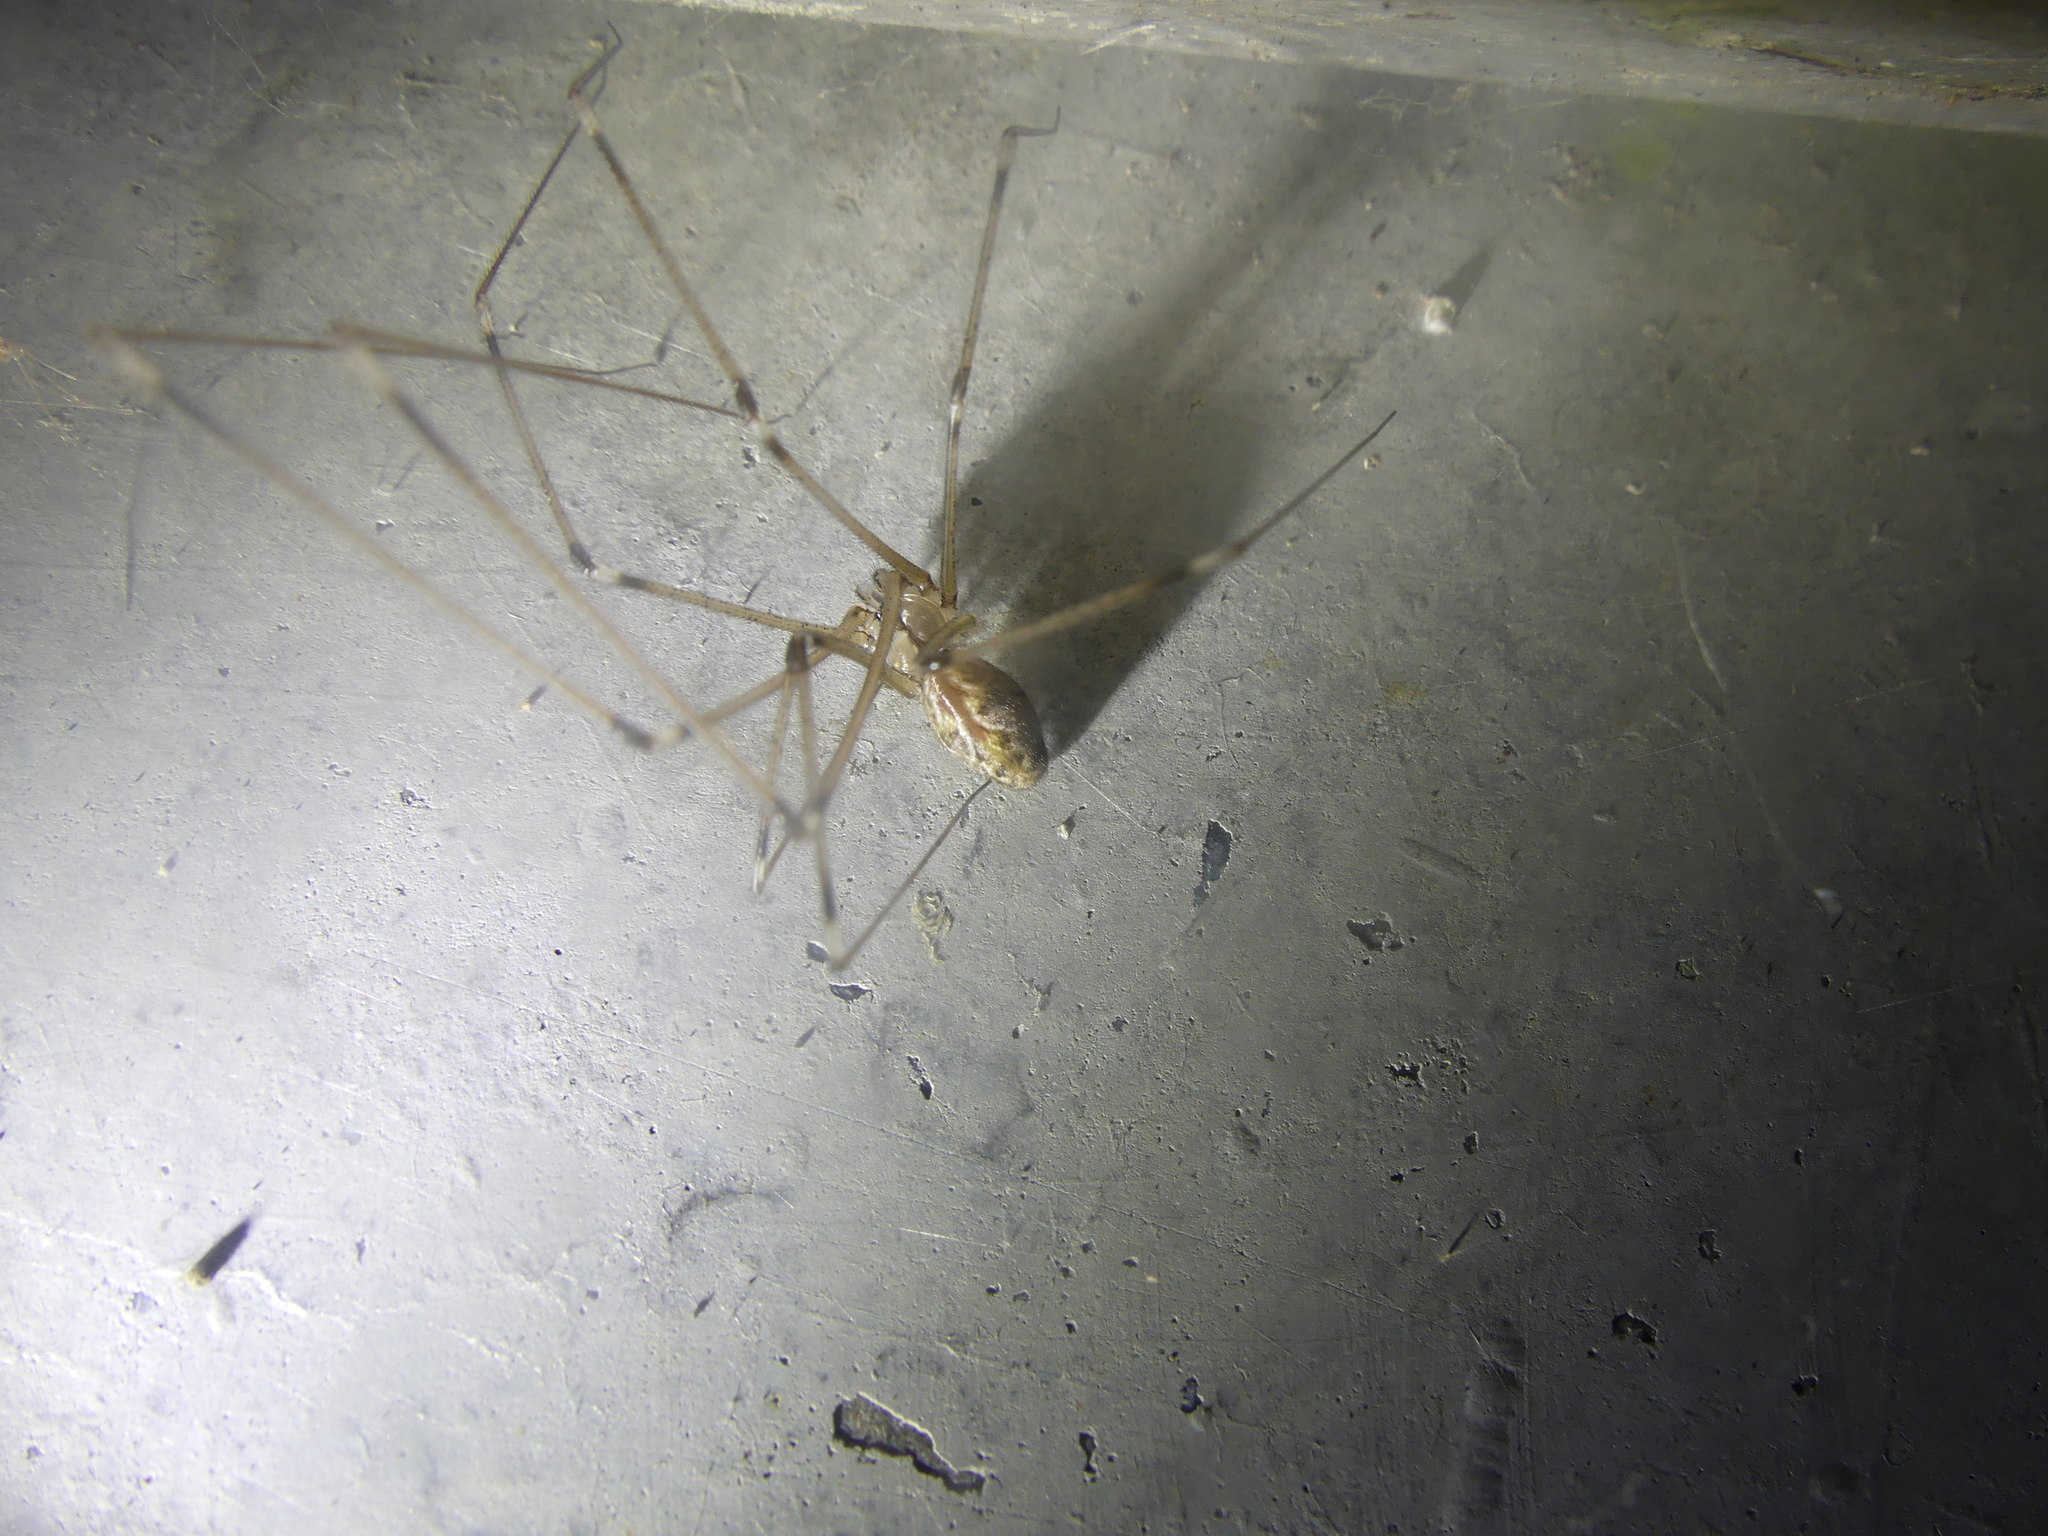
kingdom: Animalia
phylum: Arthropoda
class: Arachnida
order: Araneae
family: Pholcidae
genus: Holocnemus
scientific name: Holocnemus pluchei
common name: Marbled cellar spider
